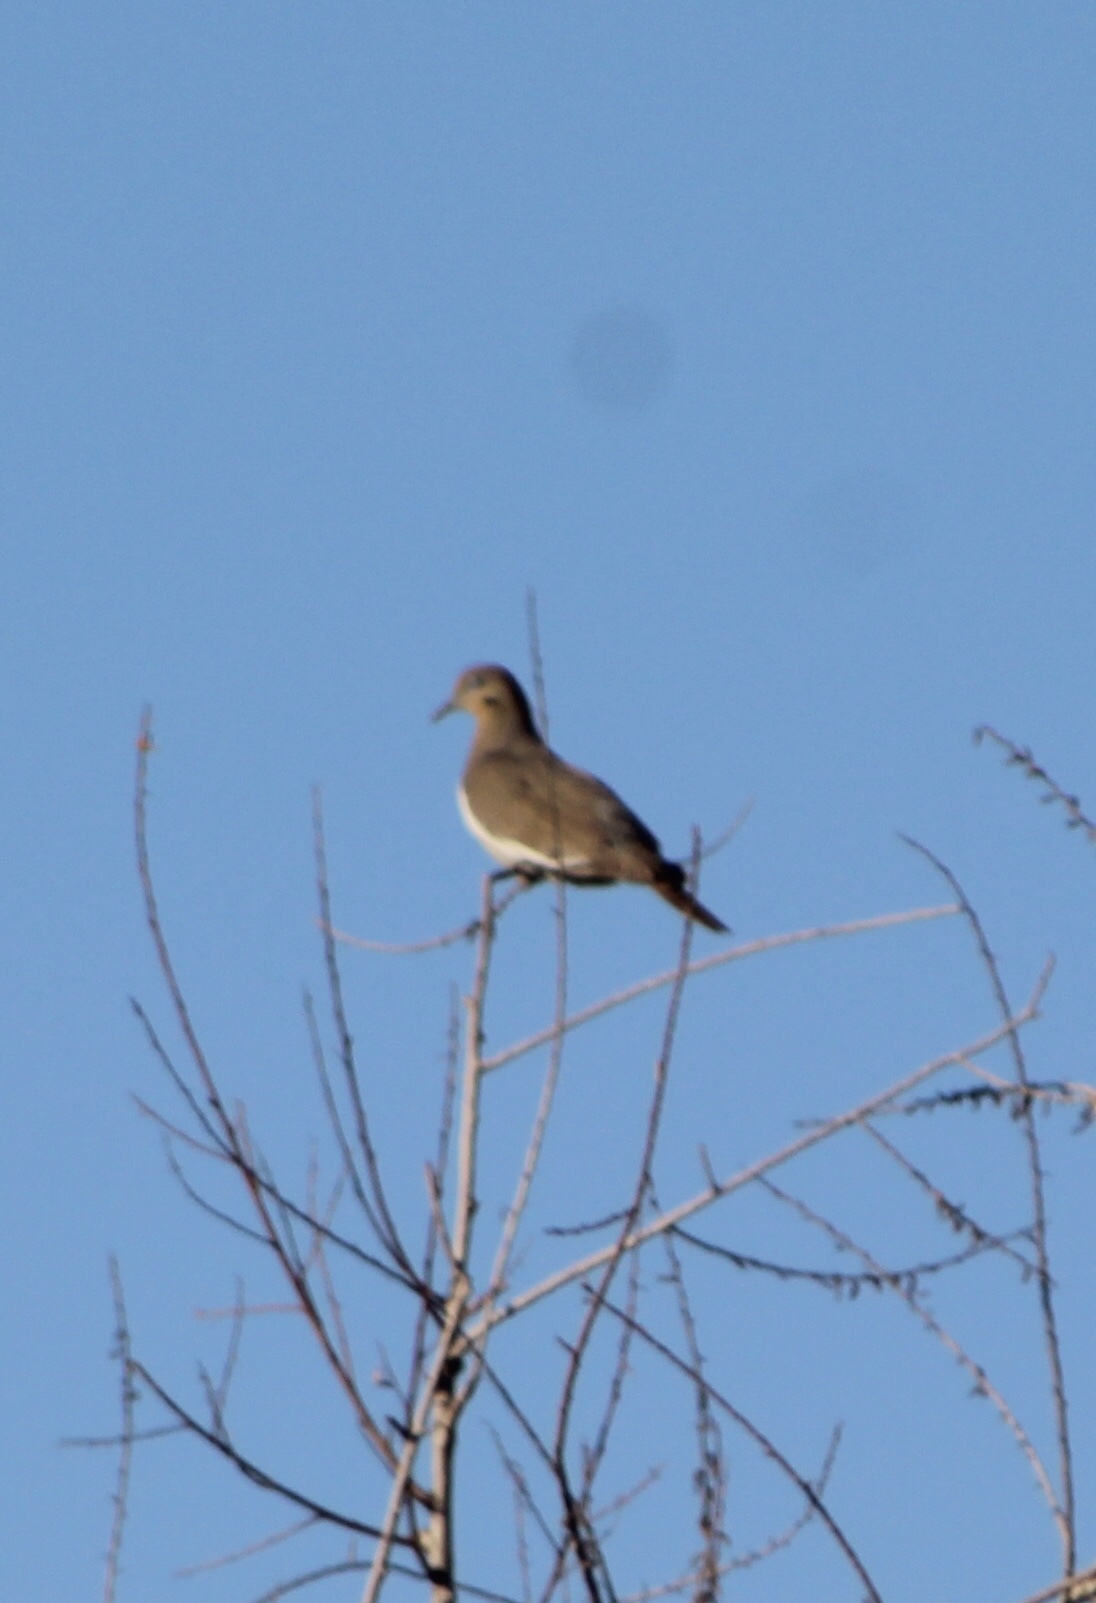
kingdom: Animalia
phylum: Chordata
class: Aves
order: Columbiformes
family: Columbidae
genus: Zenaida
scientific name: Zenaida asiatica
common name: White-winged dove
